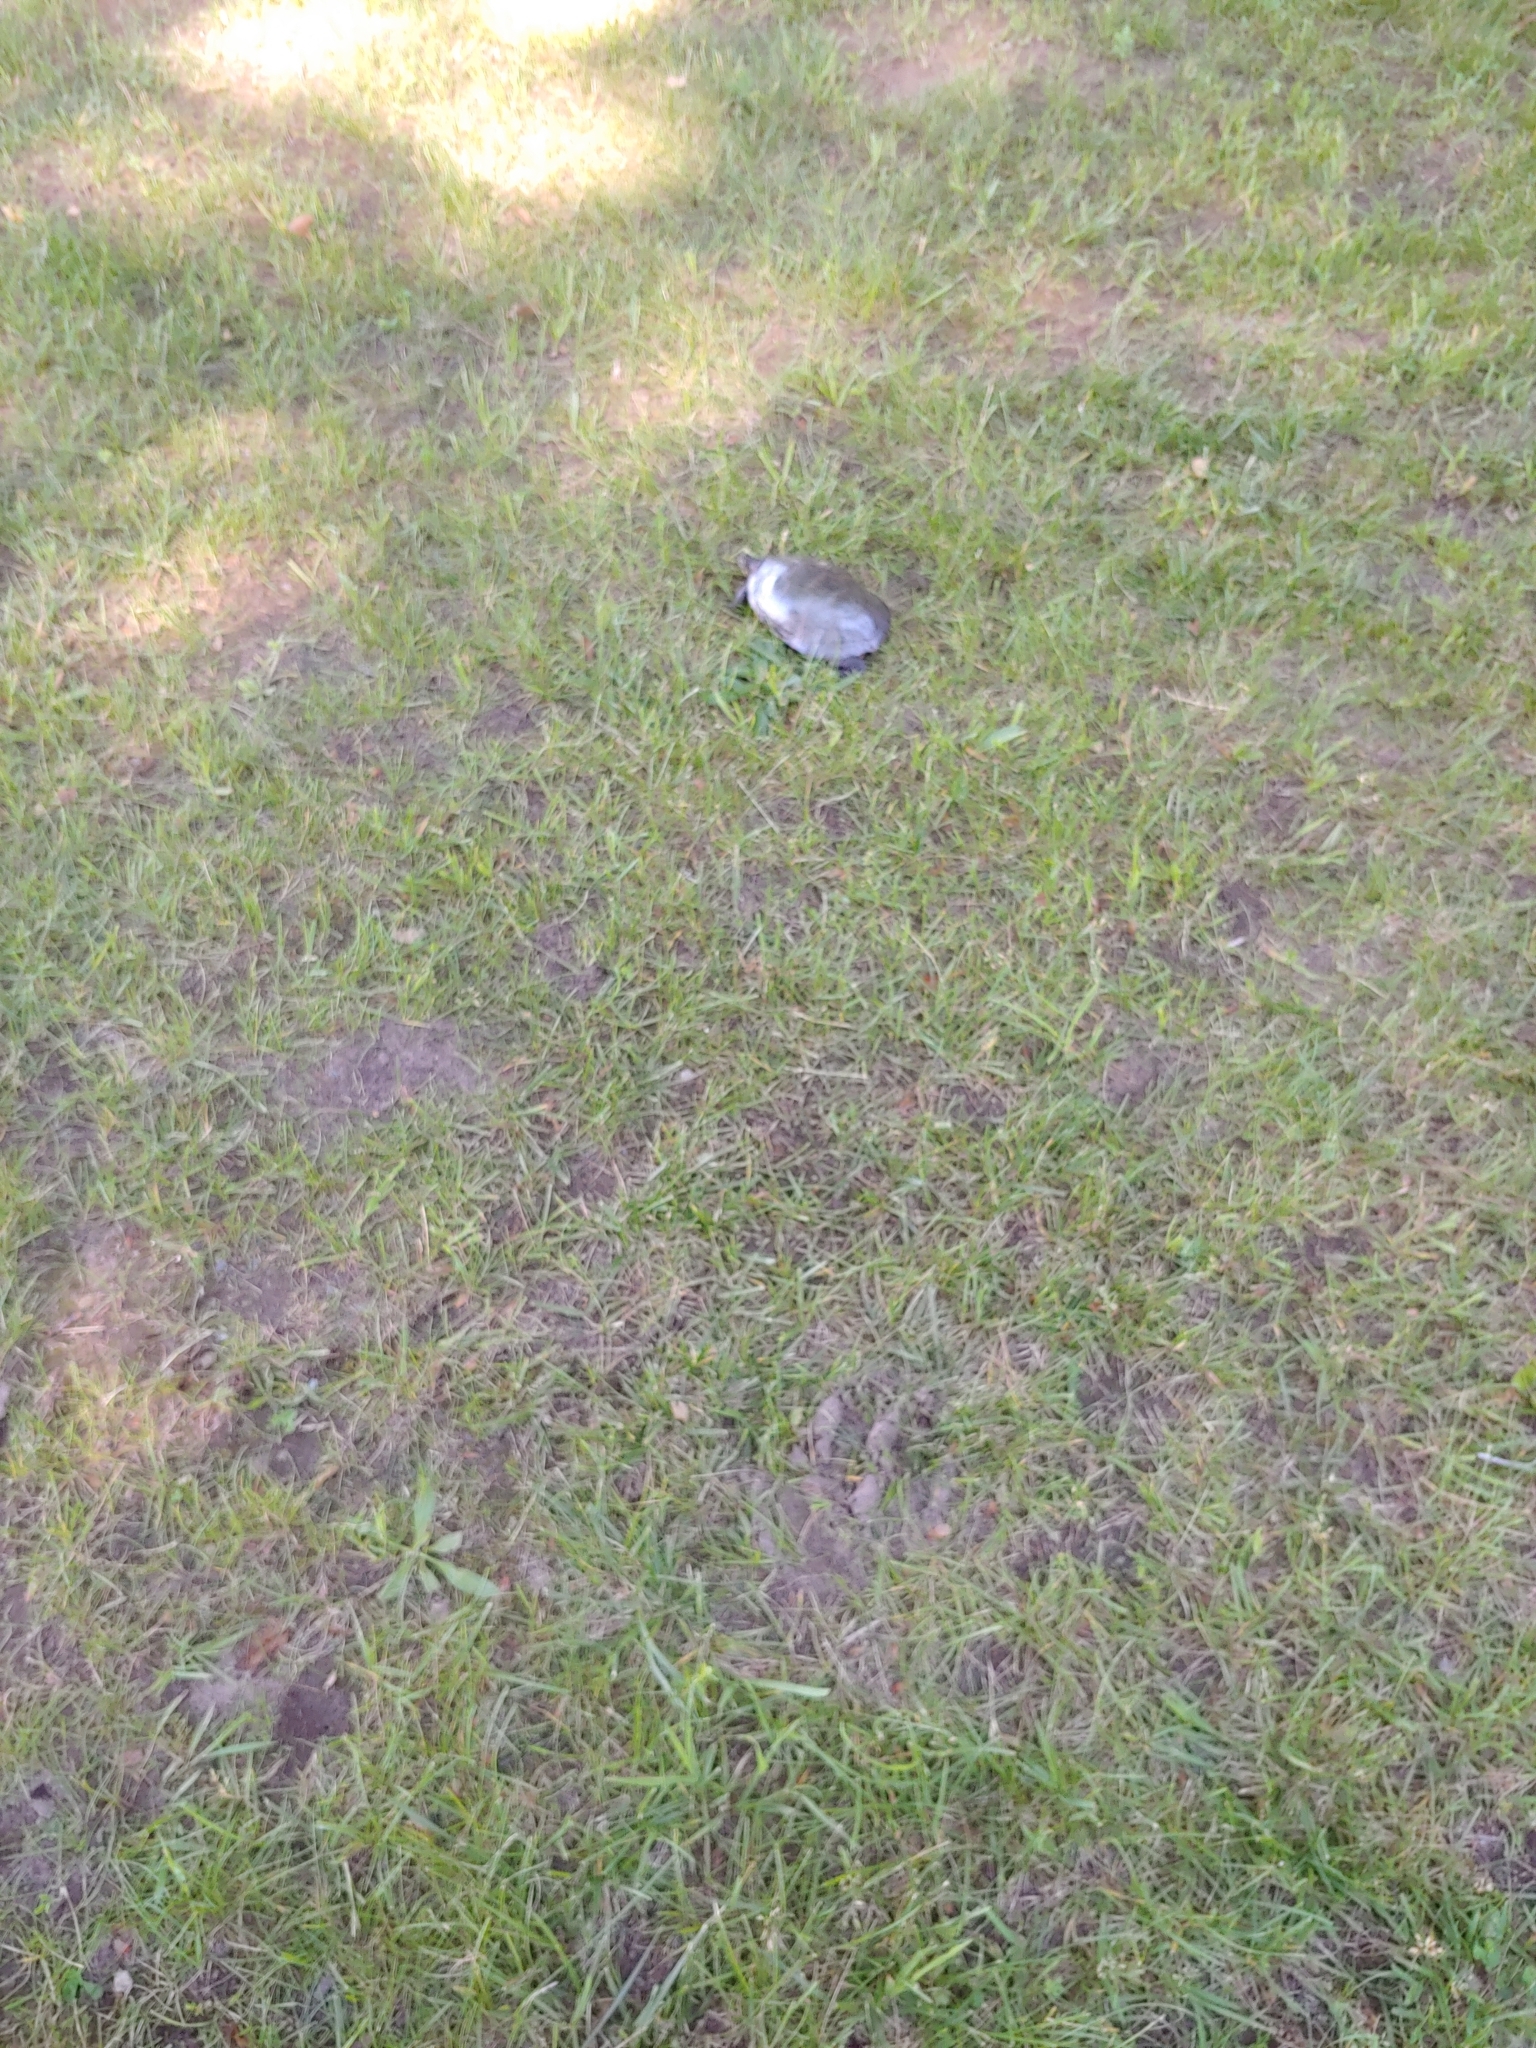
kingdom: Animalia
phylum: Chordata
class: Testudines
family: Emydidae
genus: Chrysemys
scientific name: Chrysemys picta
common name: Painted turtle
